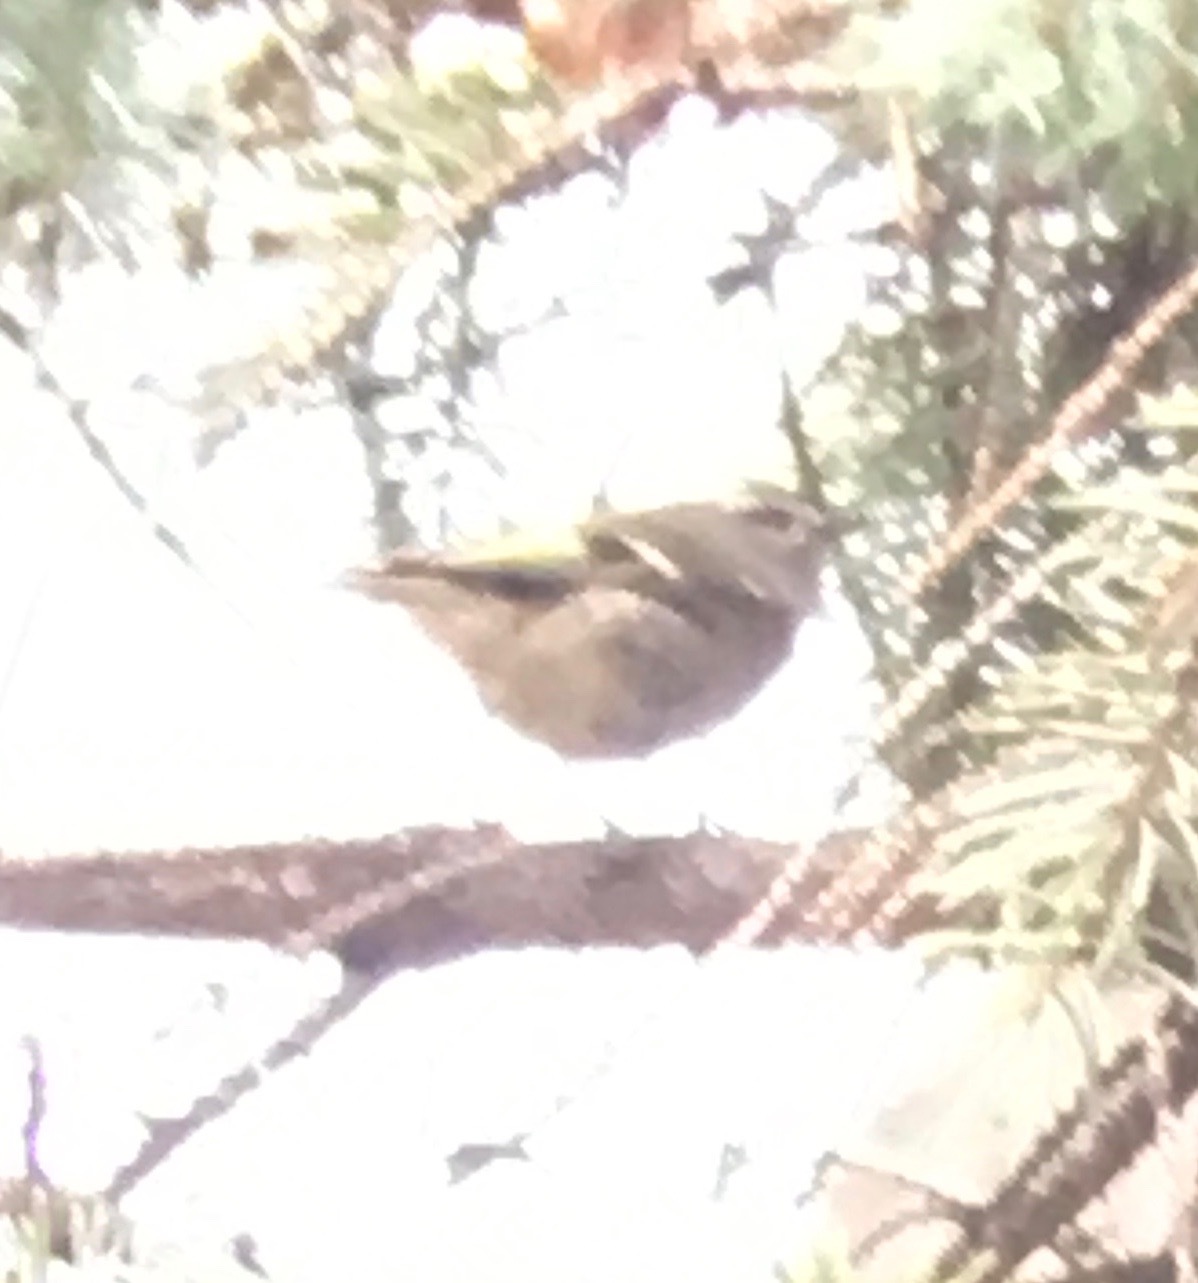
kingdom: Animalia
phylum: Chordata
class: Aves
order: Passeriformes
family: Regulidae
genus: Regulus
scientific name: Regulus satrapa
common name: Golden-crowned kinglet
